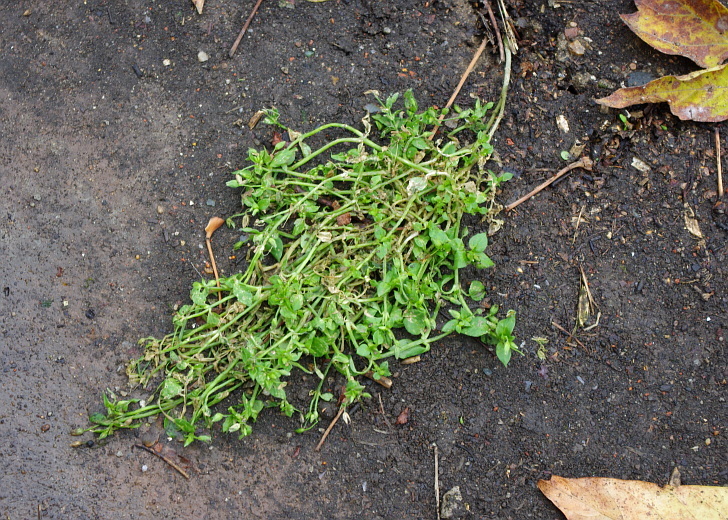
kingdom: Plantae
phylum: Tracheophyta
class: Magnoliopsida
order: Caryophyllales
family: Caryophyllaceae
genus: Stellaria
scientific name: Stellaria media
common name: Common chickweed
